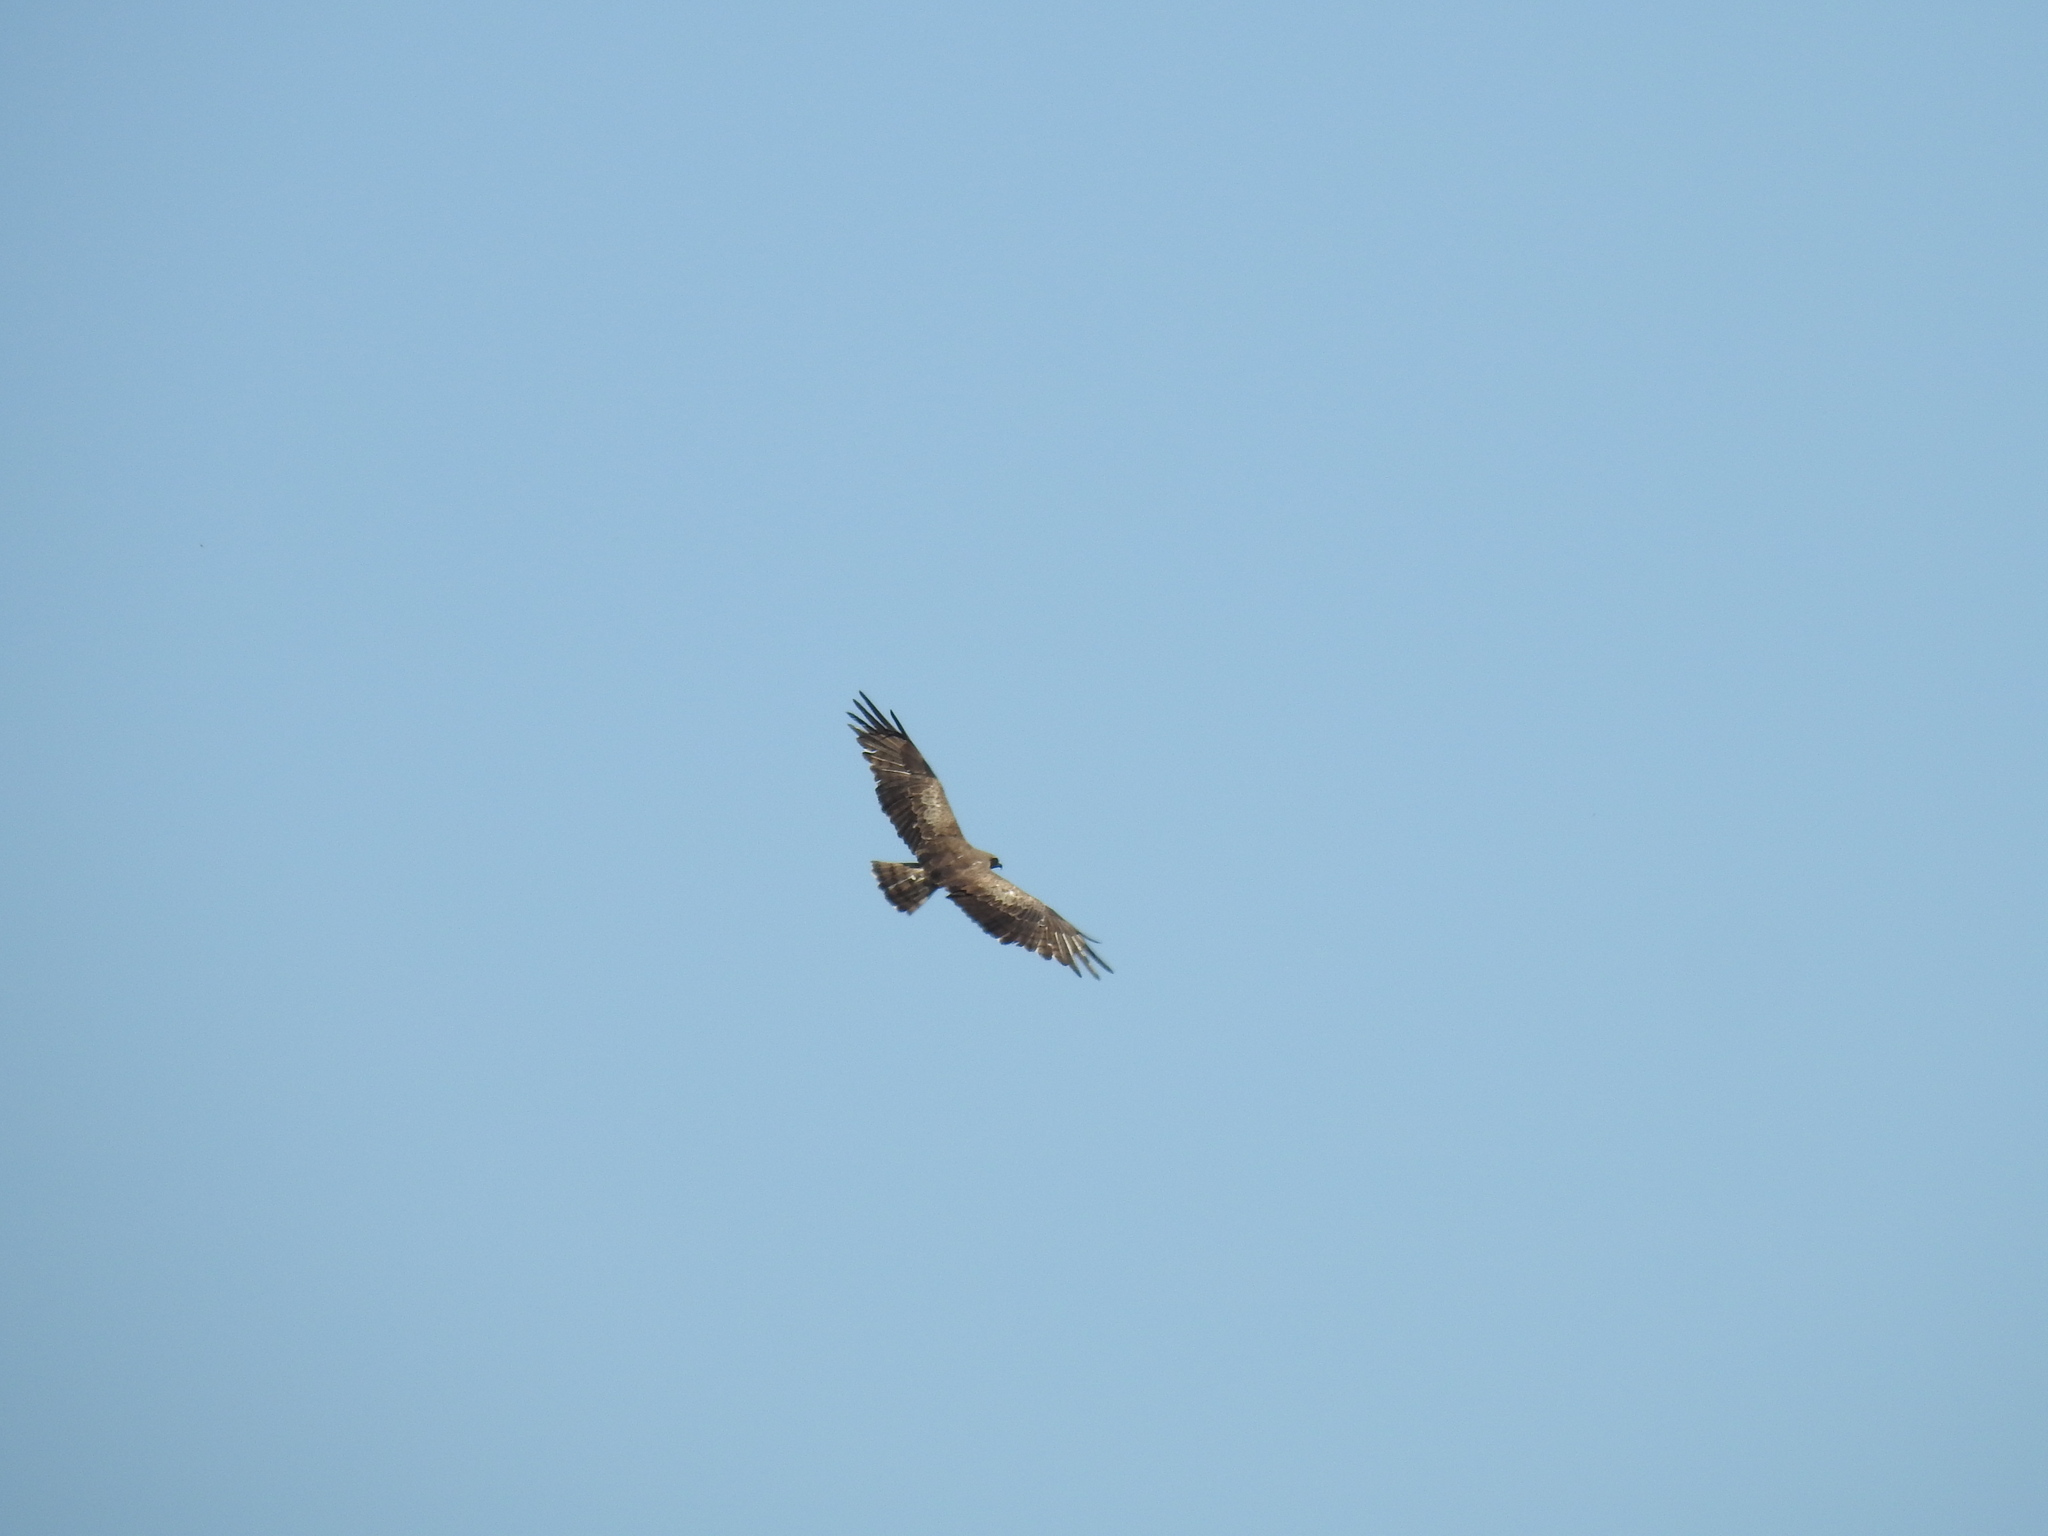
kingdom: Animalia
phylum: Chordata
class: Aves
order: Accipitriformes
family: Accipitridae
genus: Circaetus
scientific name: Circaetus gallicus
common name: Short-toed snake eagle
